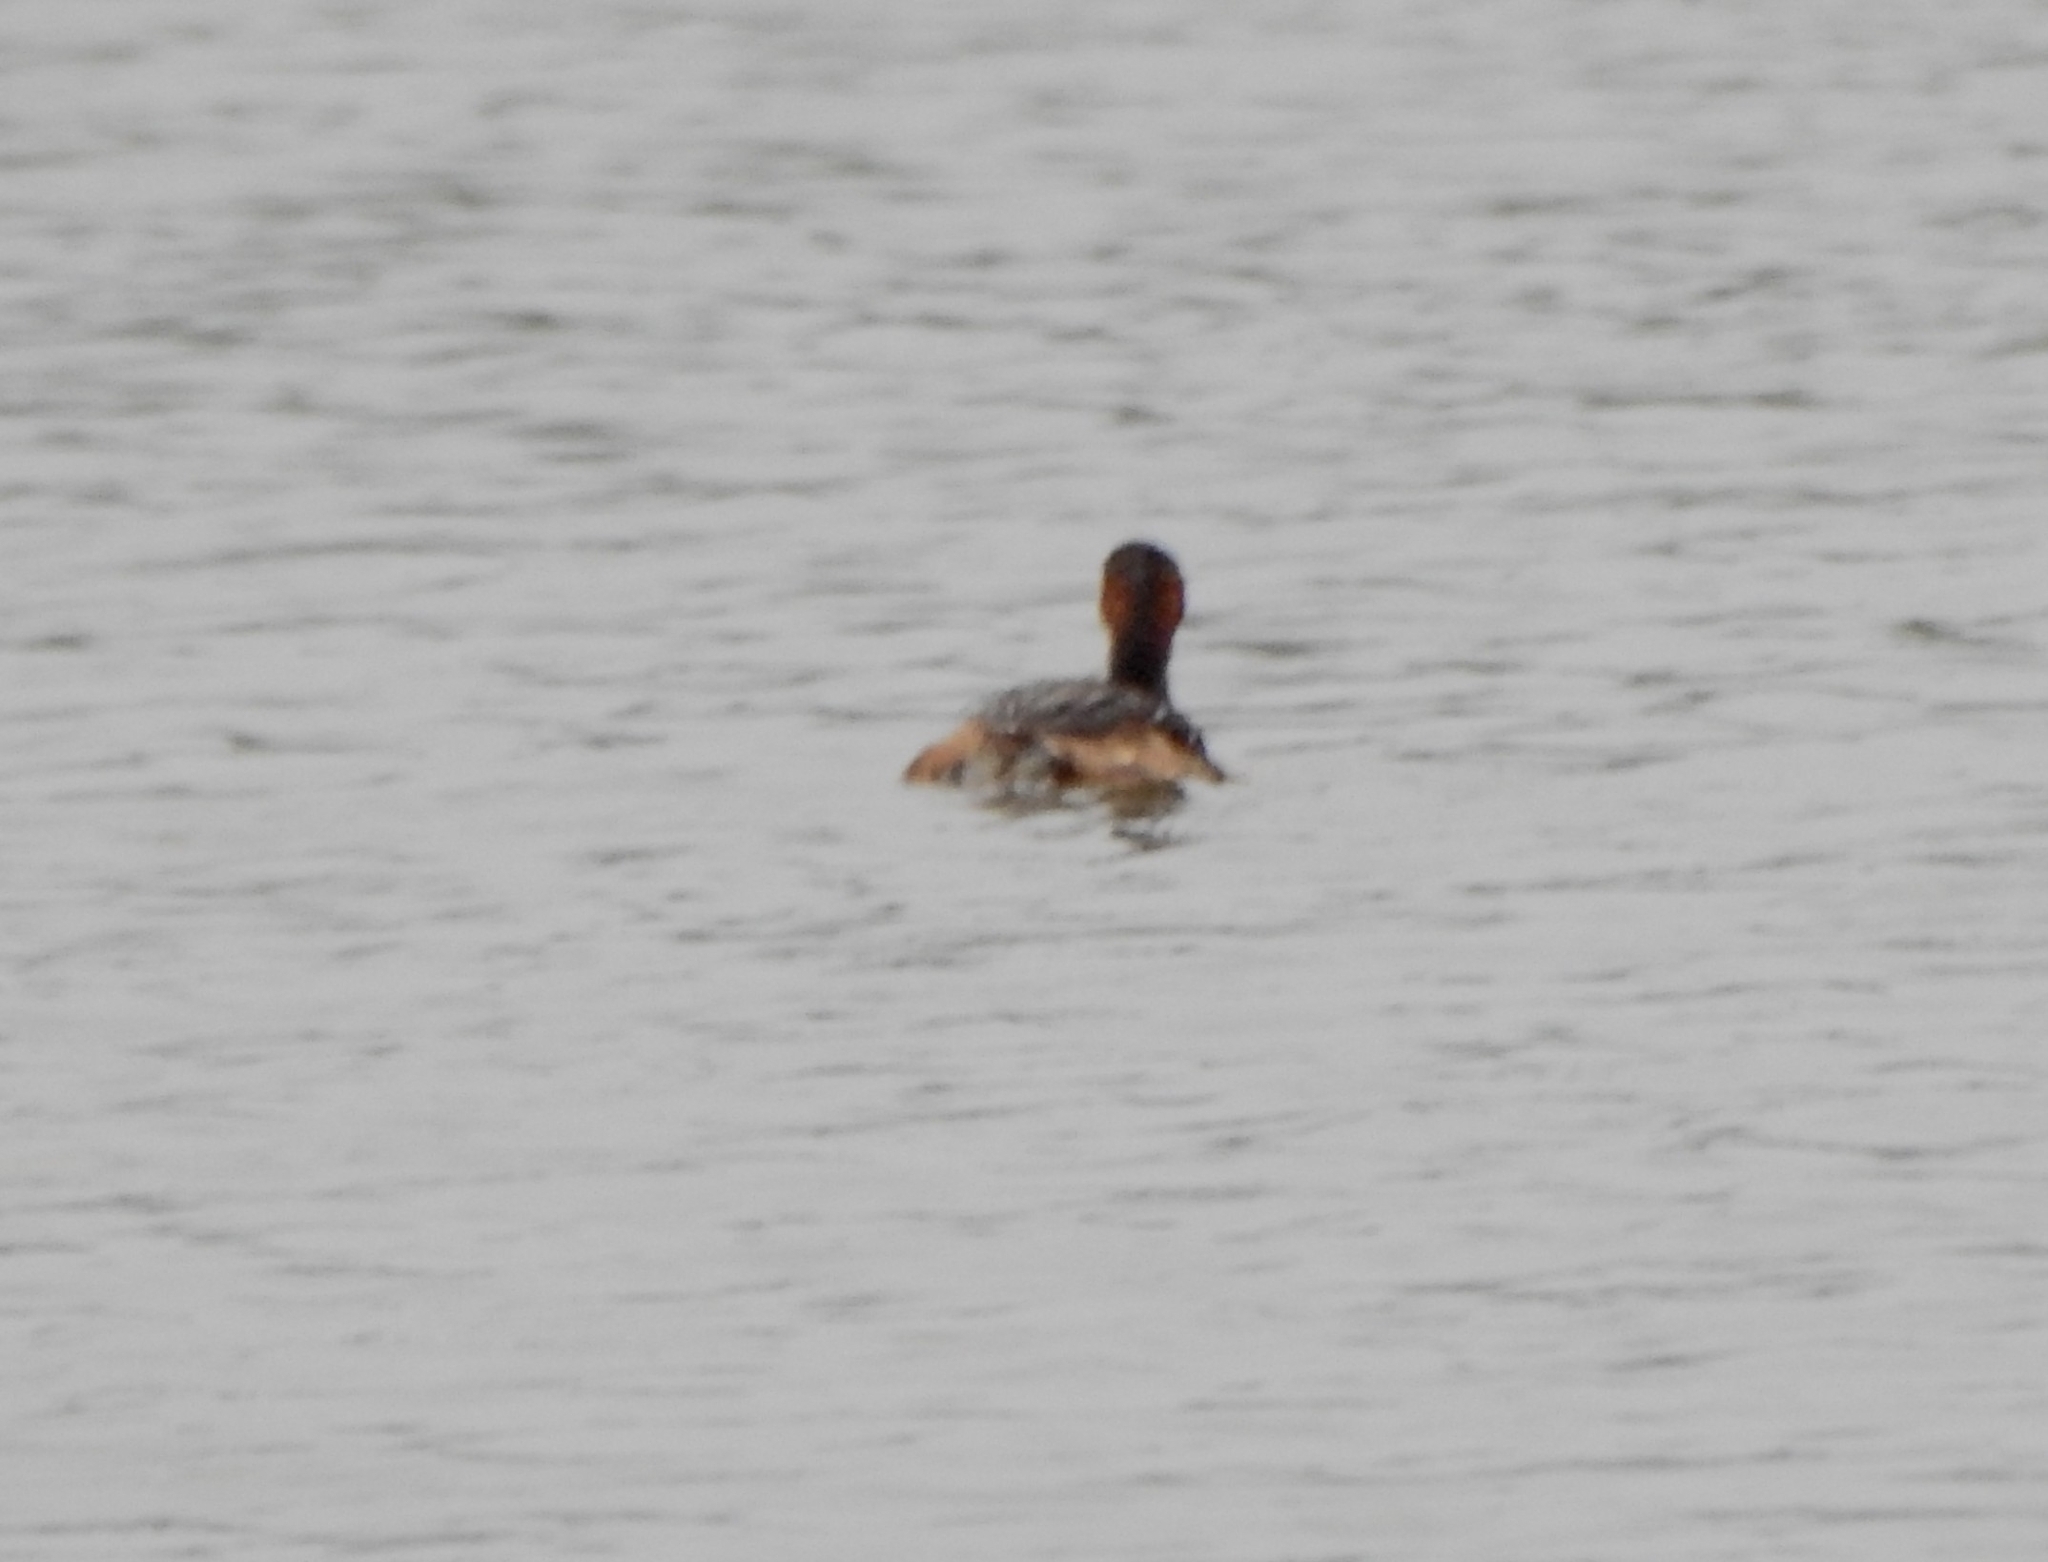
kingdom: Animalia
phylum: Chordata
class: Aves
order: Podicipediformes
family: Podicipedidae
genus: Tachybaptus
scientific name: Tachybaptus ruficollis
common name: Little grebe
